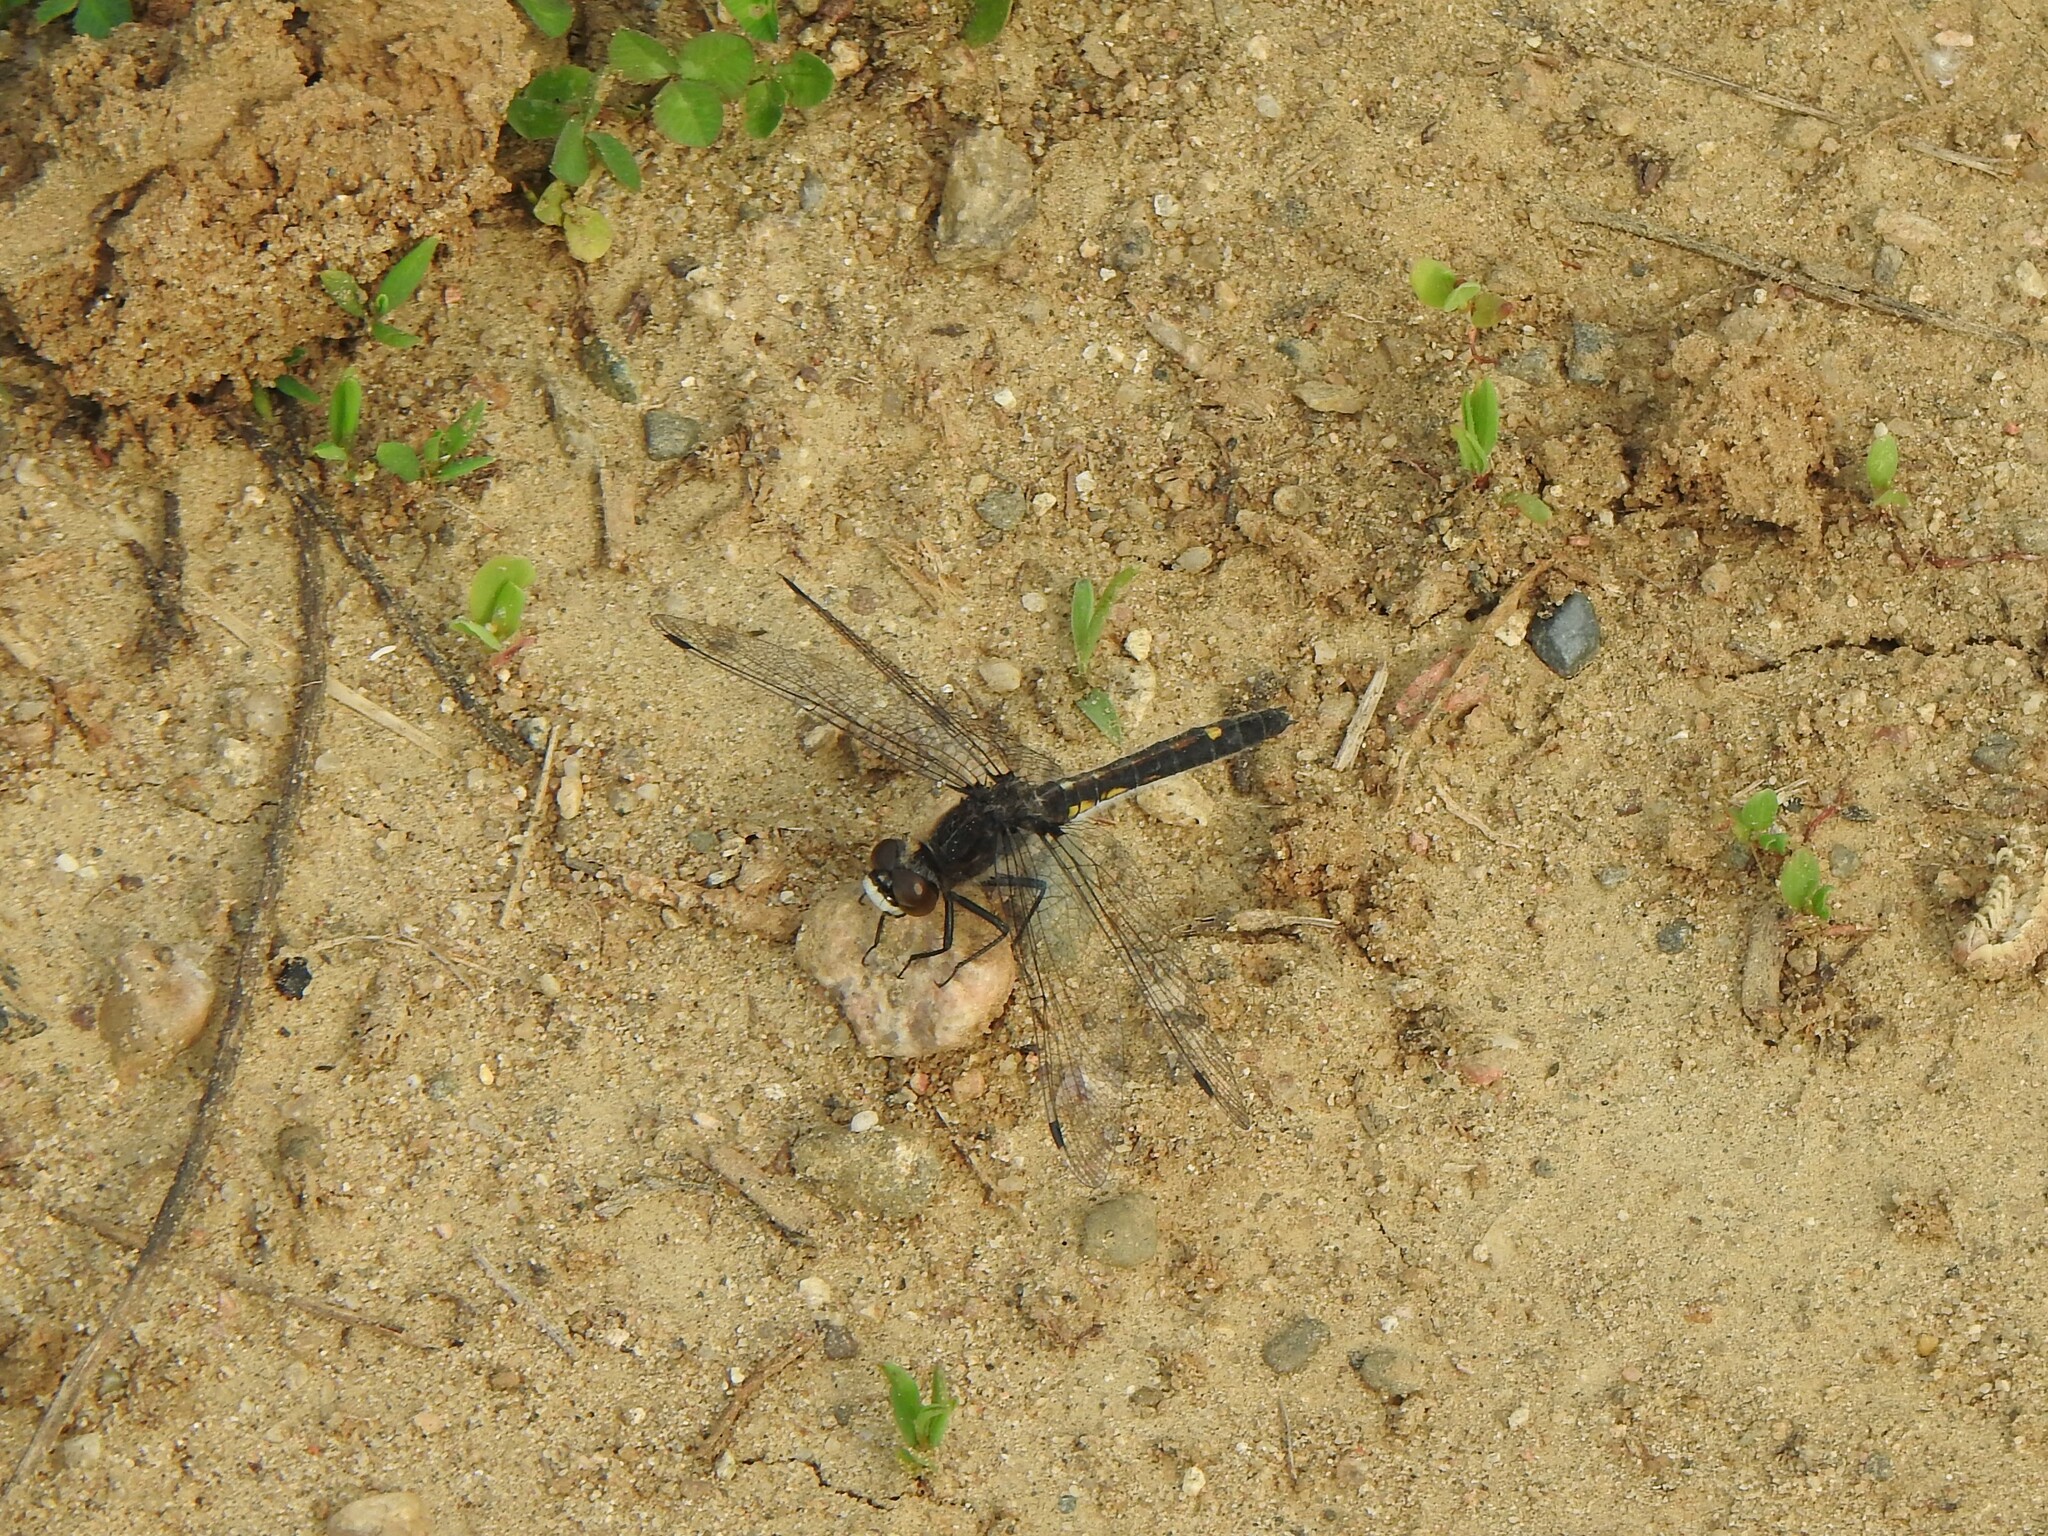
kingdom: Animalia
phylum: Arthropoda
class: Insecta
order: Odonata
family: Libellulidae
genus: Leucorrhinia
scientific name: Leucorrhinia intacta
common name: Dot-tailed whiteface
